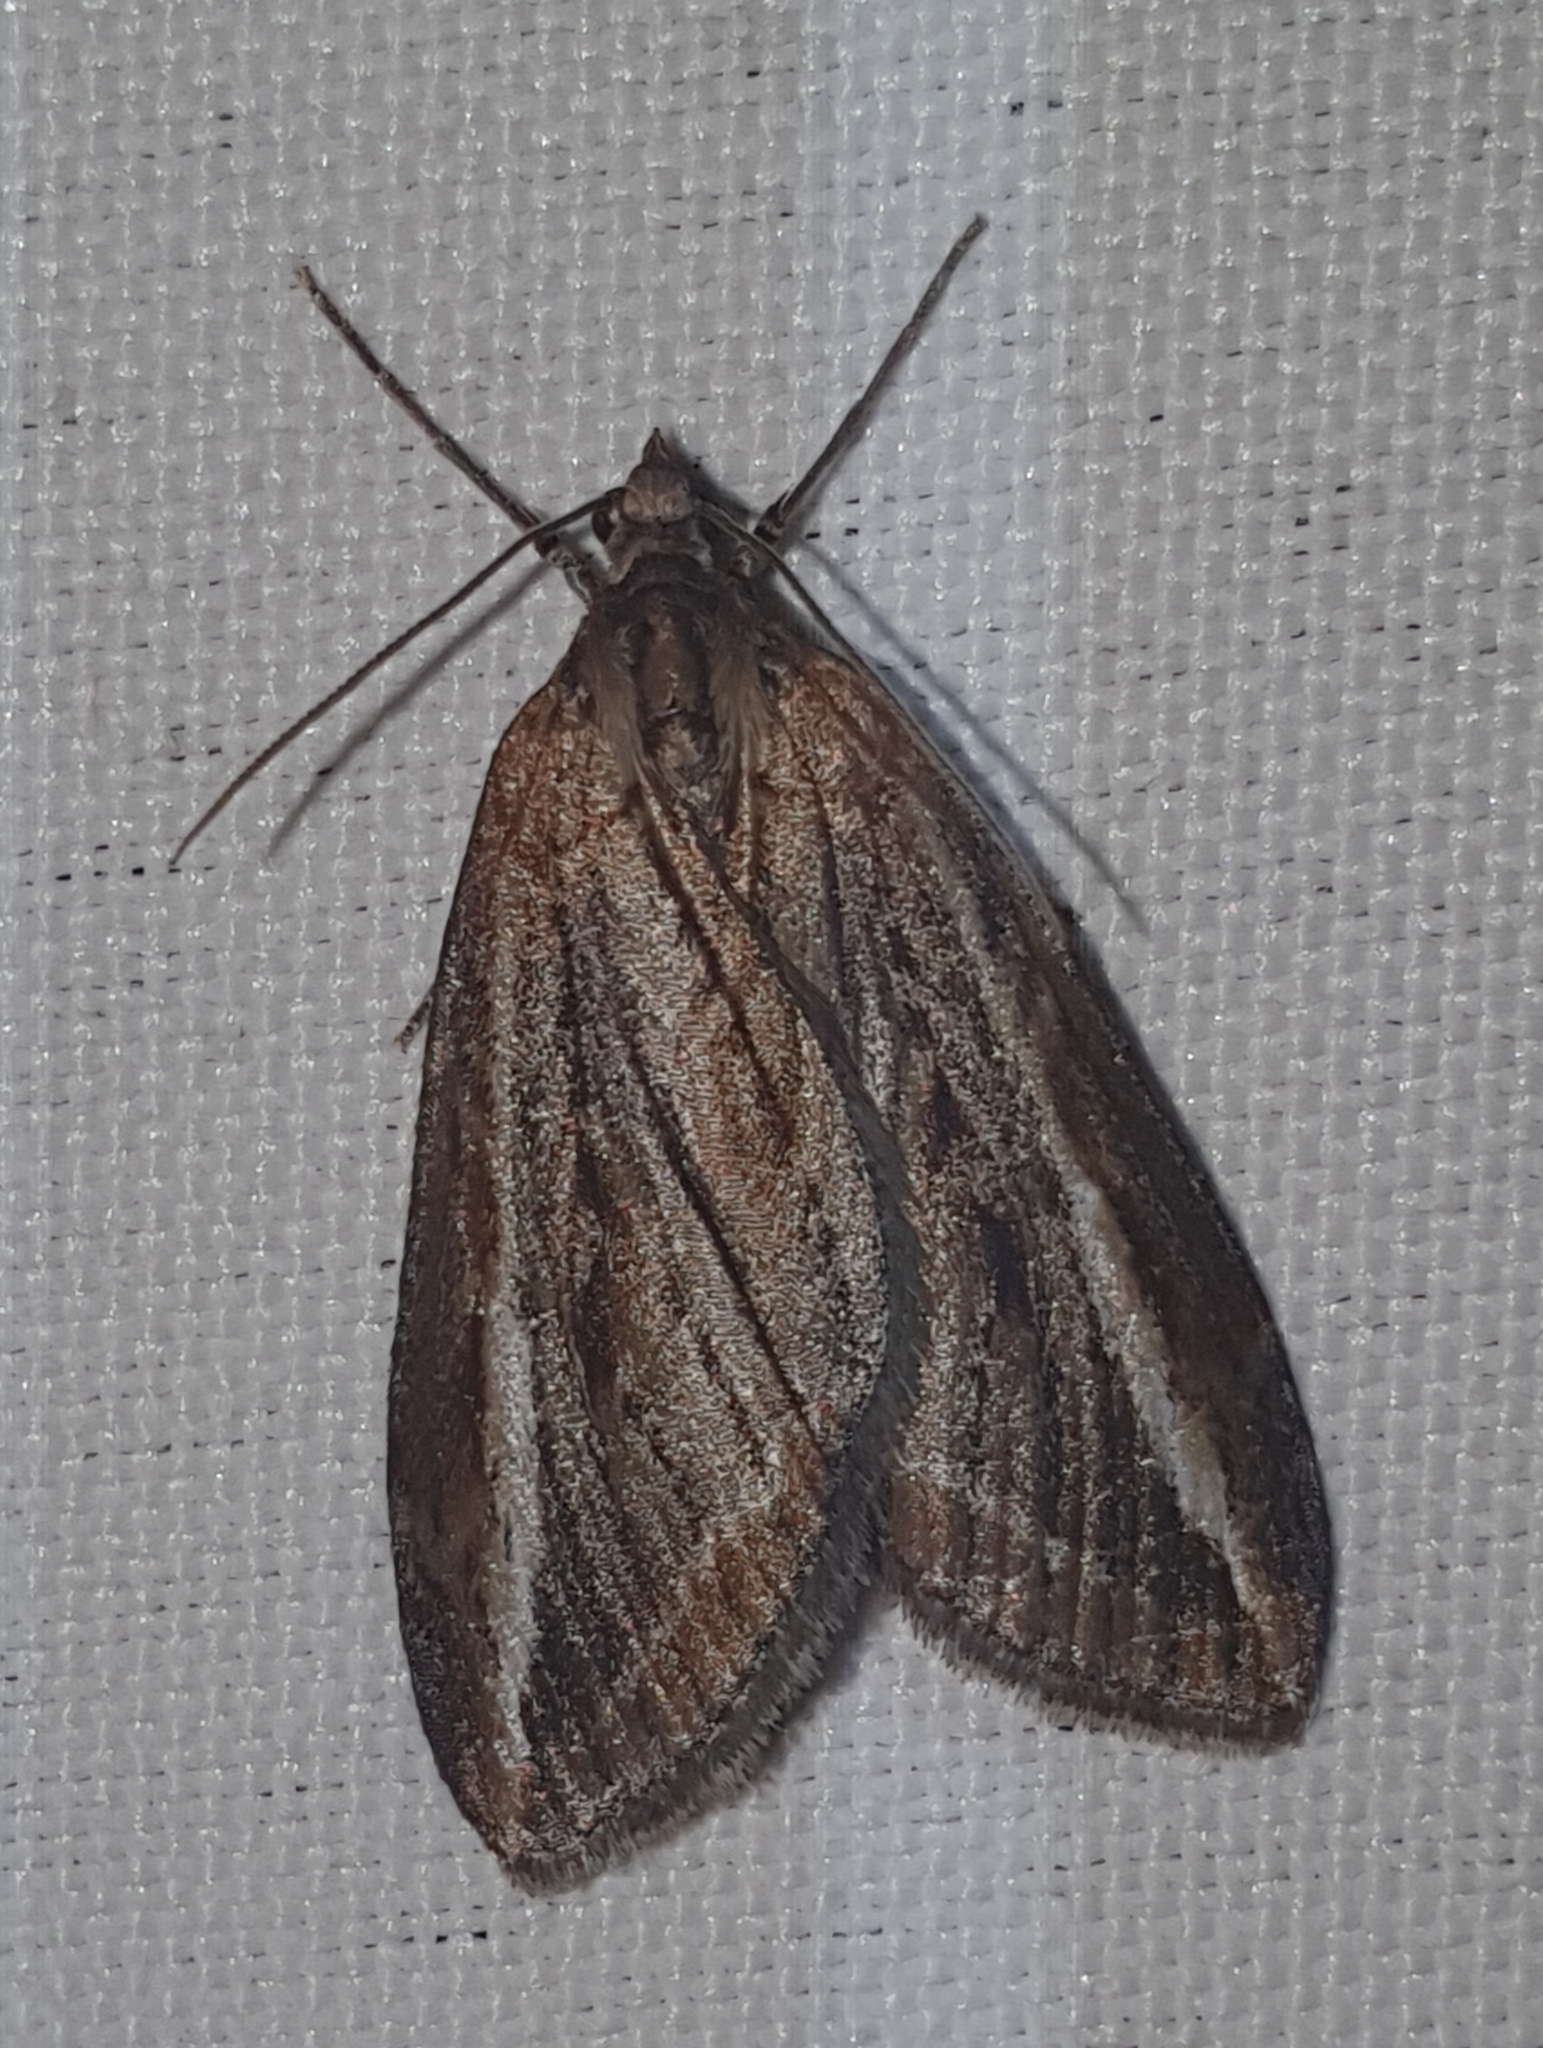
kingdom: Animalia
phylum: Arthropoda
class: Insecta
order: Lepidoptera
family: Geometridae
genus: Chesias
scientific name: Chesias legatella
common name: Streak
